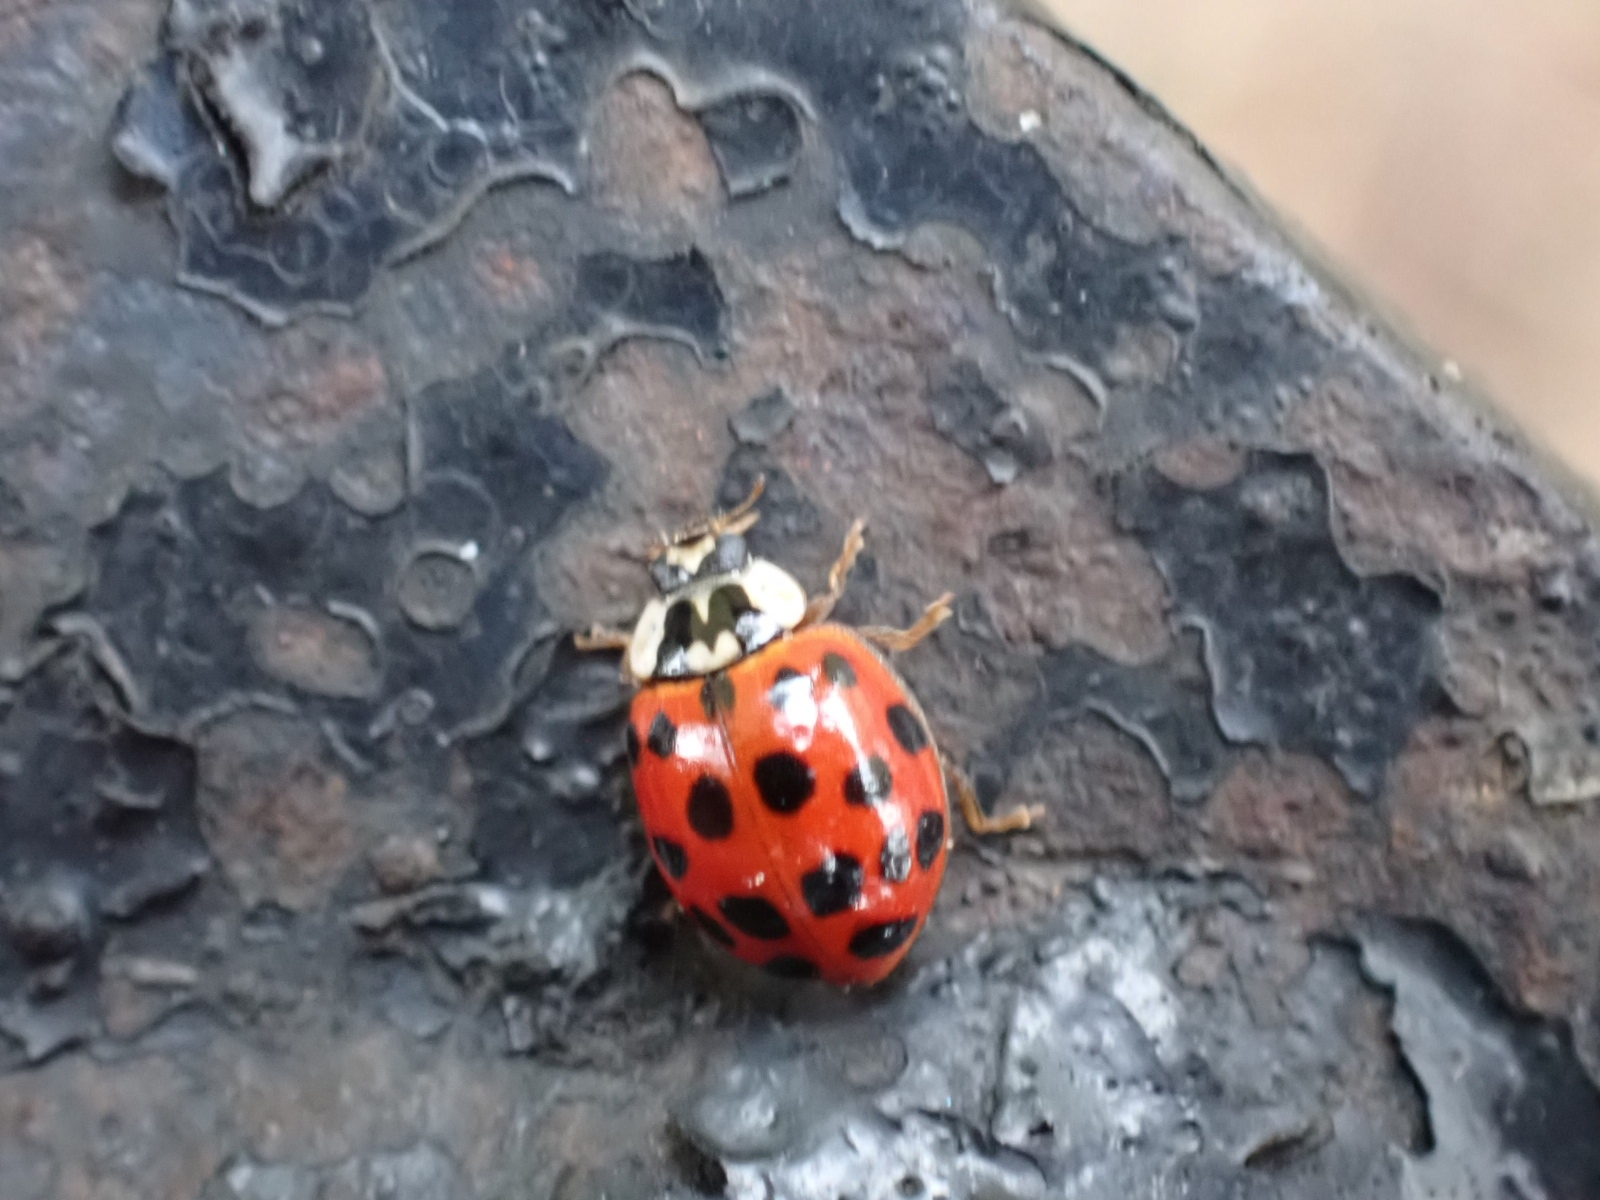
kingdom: Animalia
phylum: Arthropoda
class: Insecta
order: Coleoptera
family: Coccinellidae
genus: Harmonia
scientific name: Harmonia axyridis
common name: Harlequin ladybird
